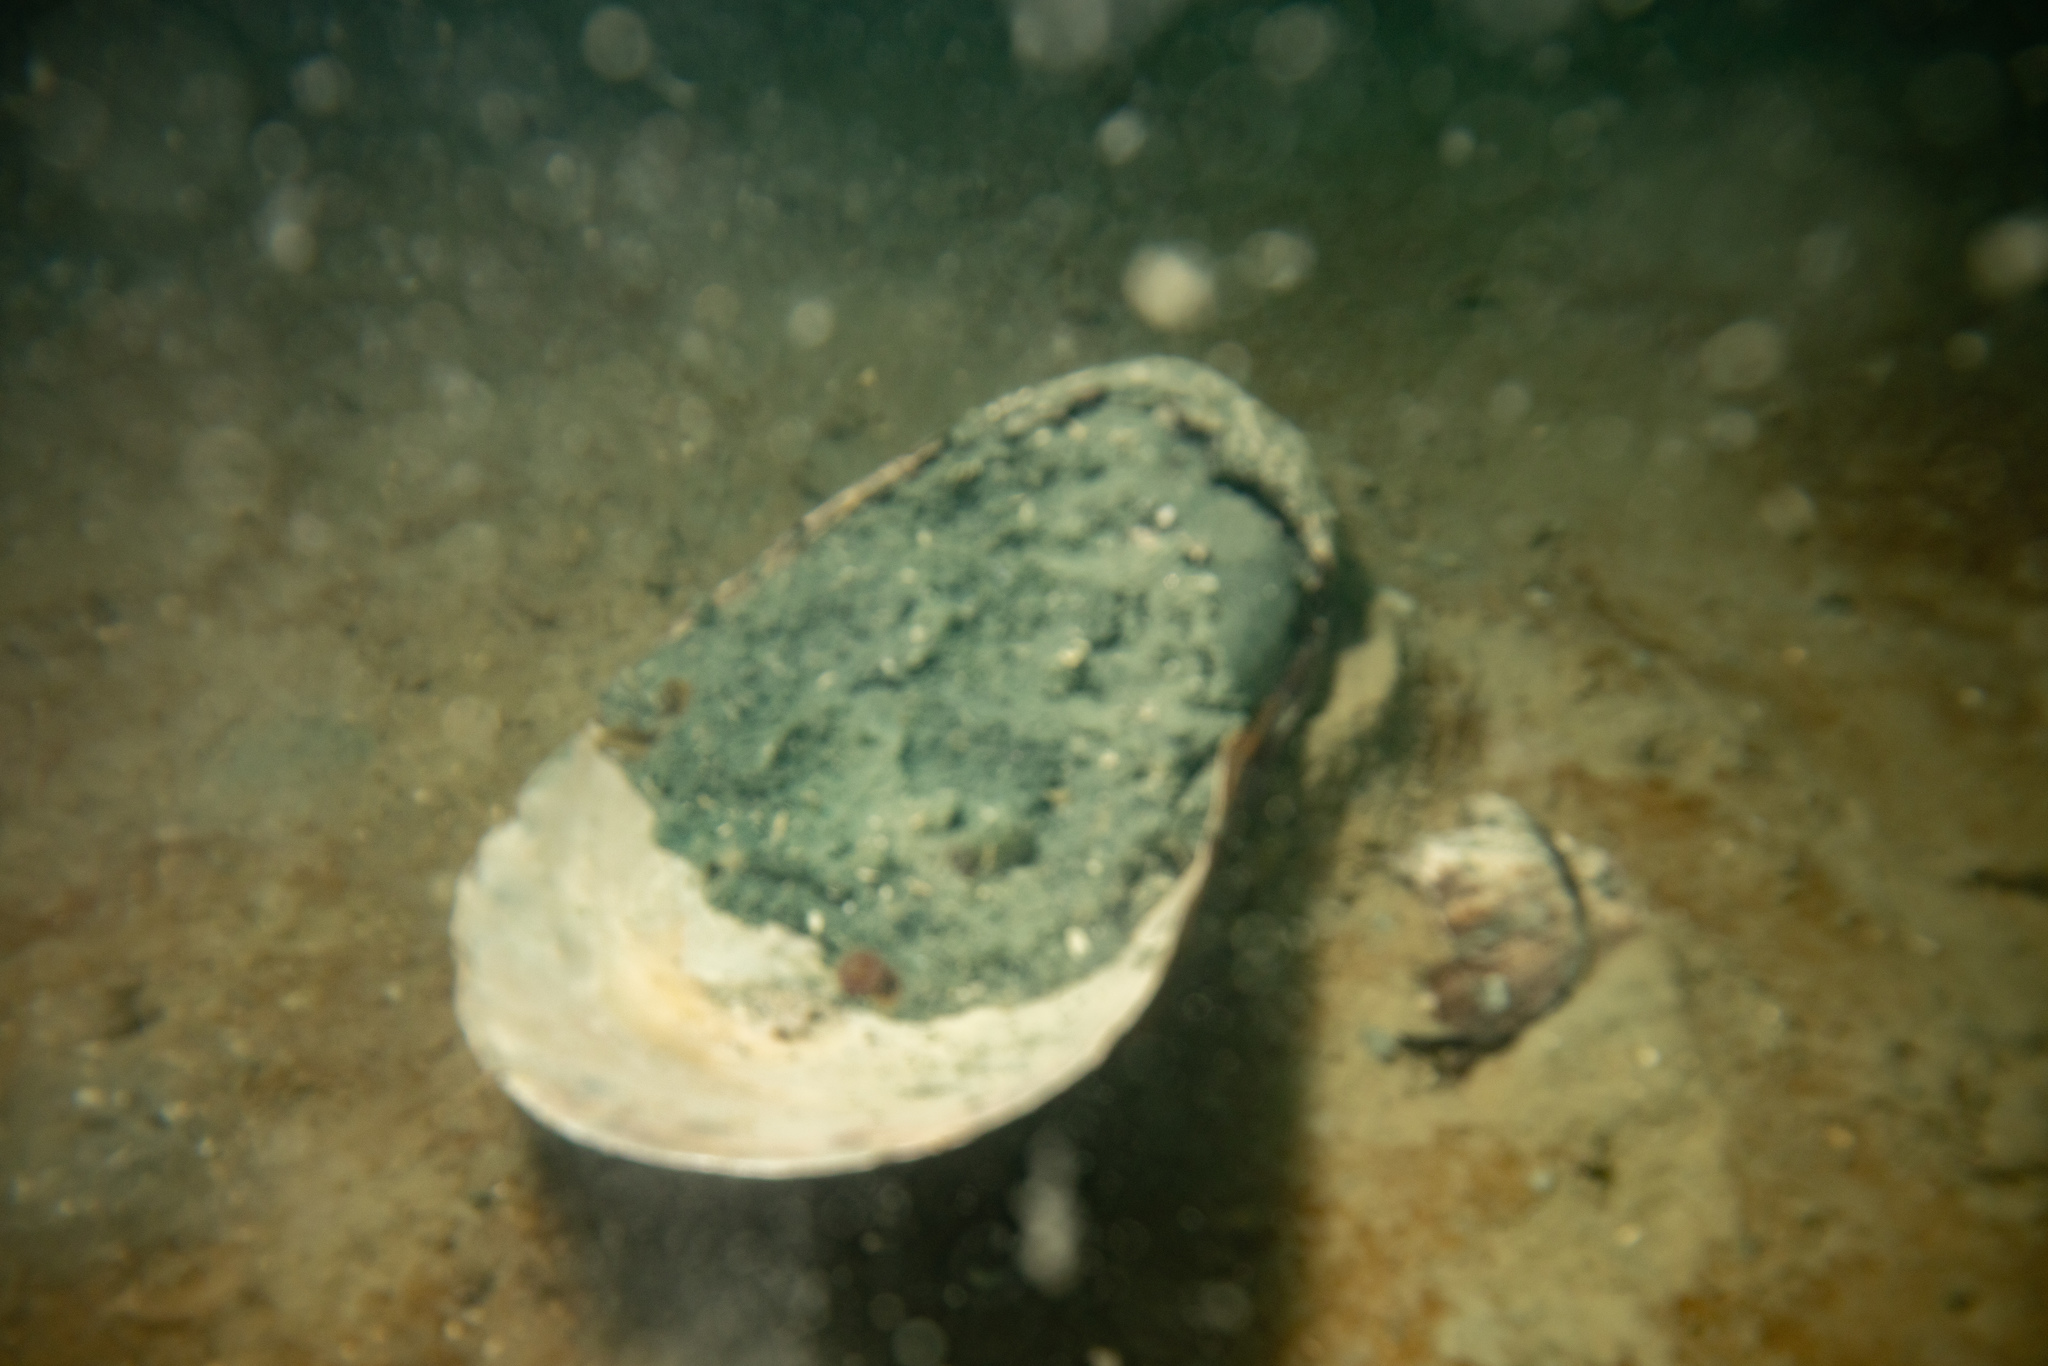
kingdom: Animalia
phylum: Mollusca
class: Bivalvia
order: Mytilida
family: Mytilidae
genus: Perna
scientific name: Perna canaliculus
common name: New zealand greenshelltm
